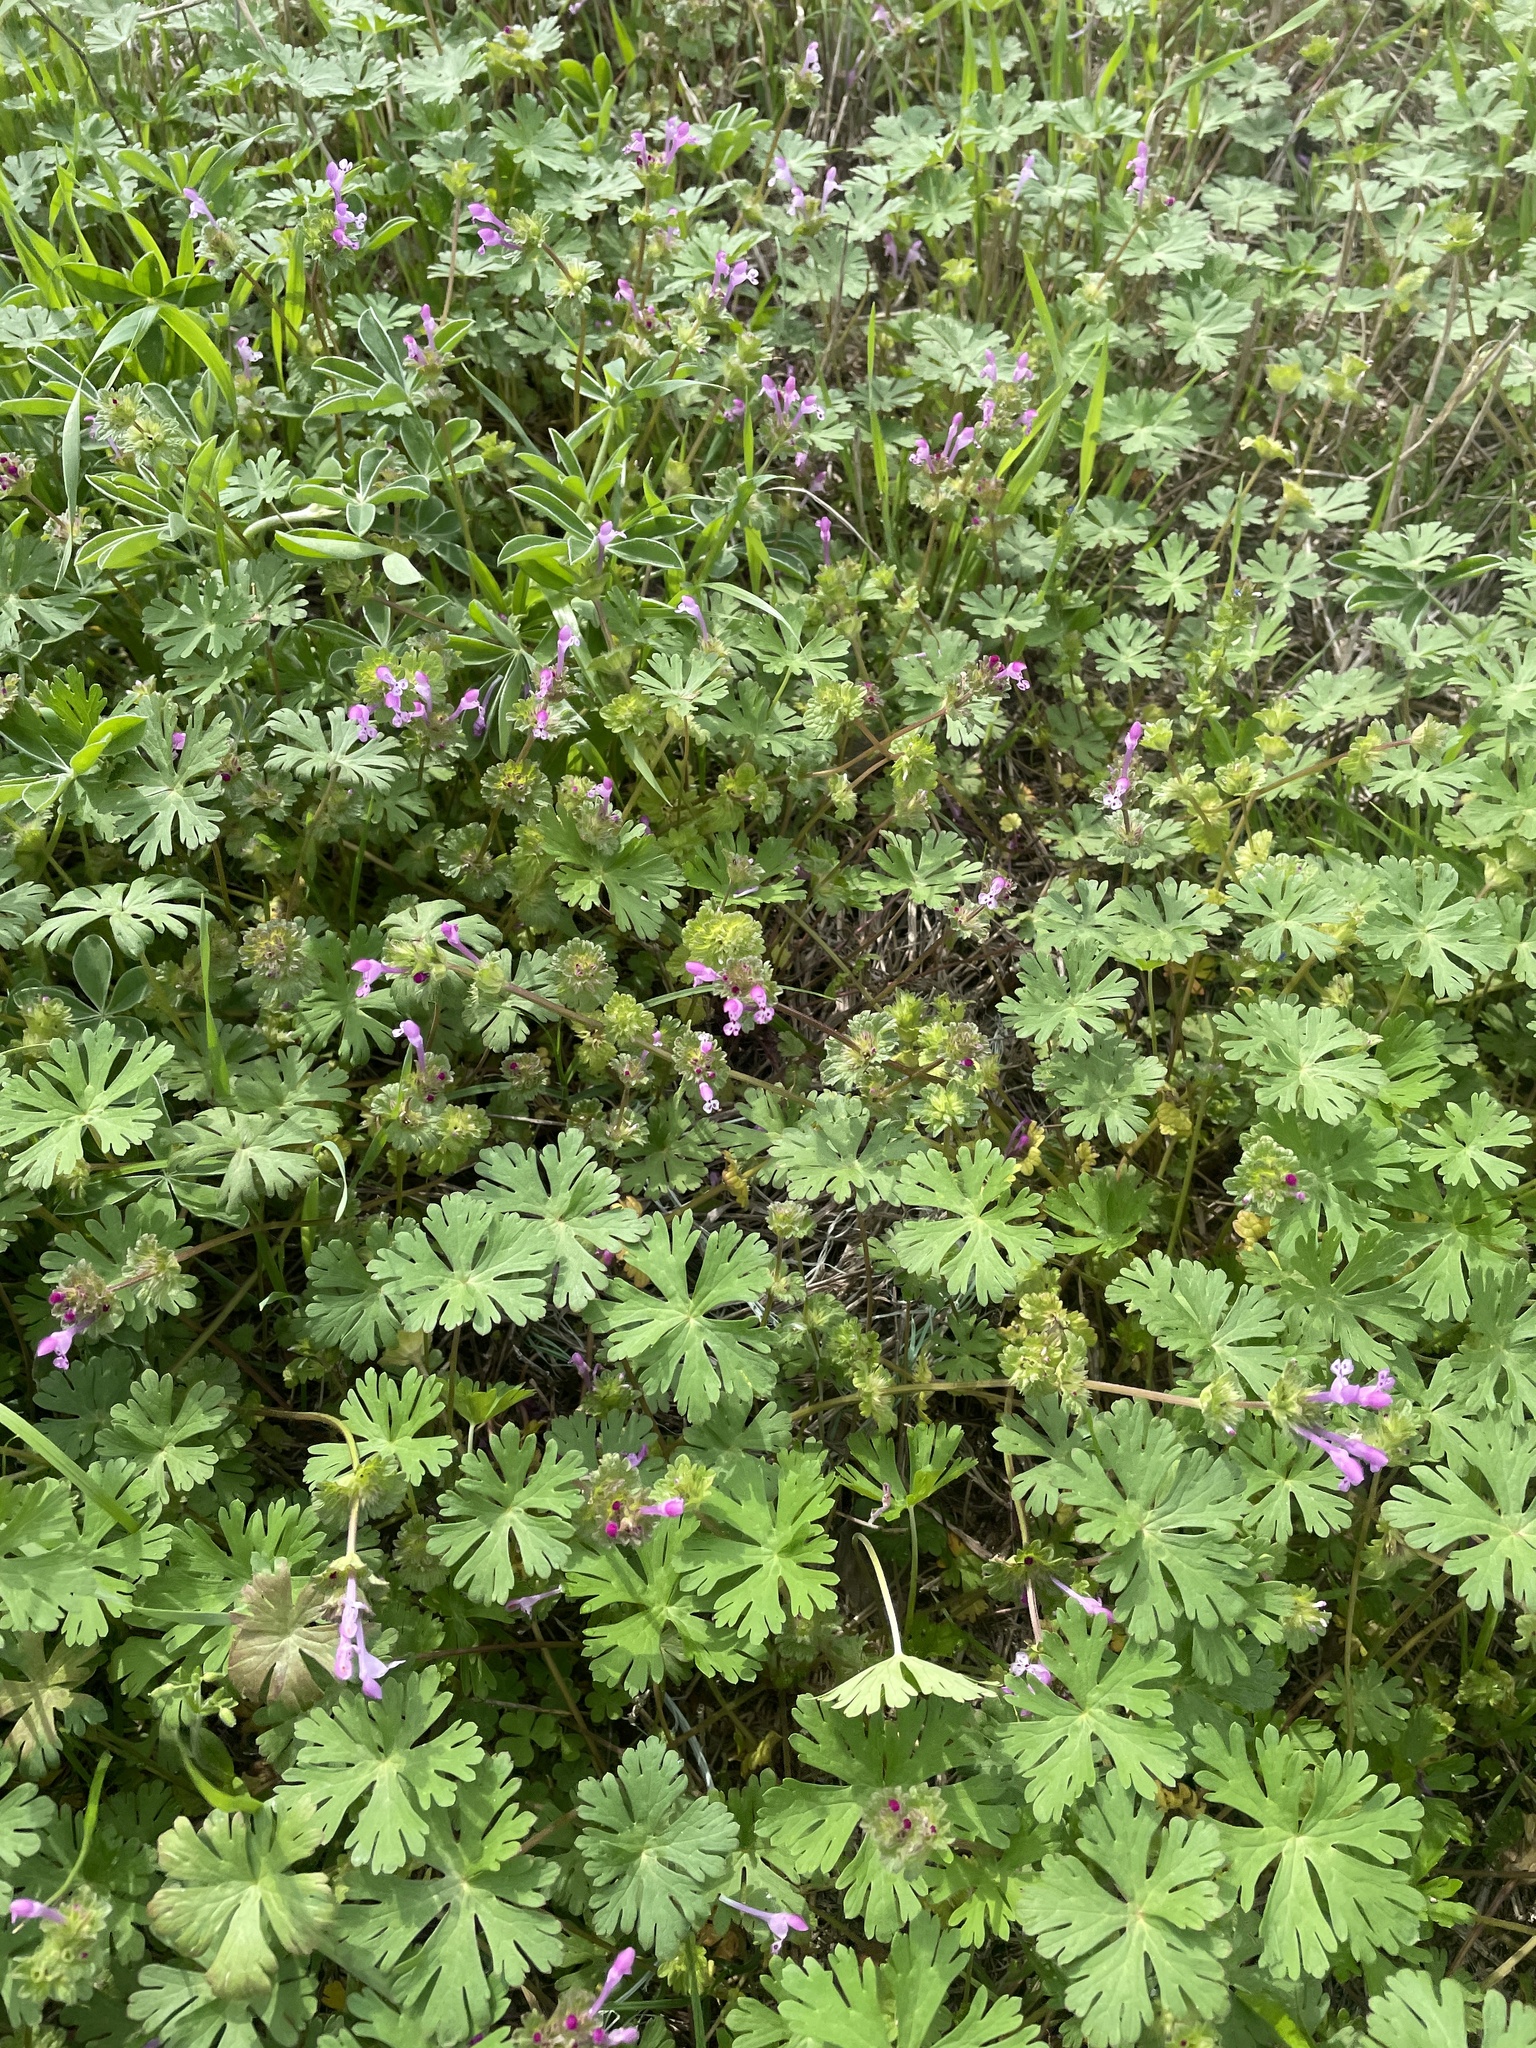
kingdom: Plantae
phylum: Tracheophyta
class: Magnoliopsida
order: Lamiales
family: Lamiaceae
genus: Lamium
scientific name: Lamium amplexicaule
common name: Henbit dead-nettle
